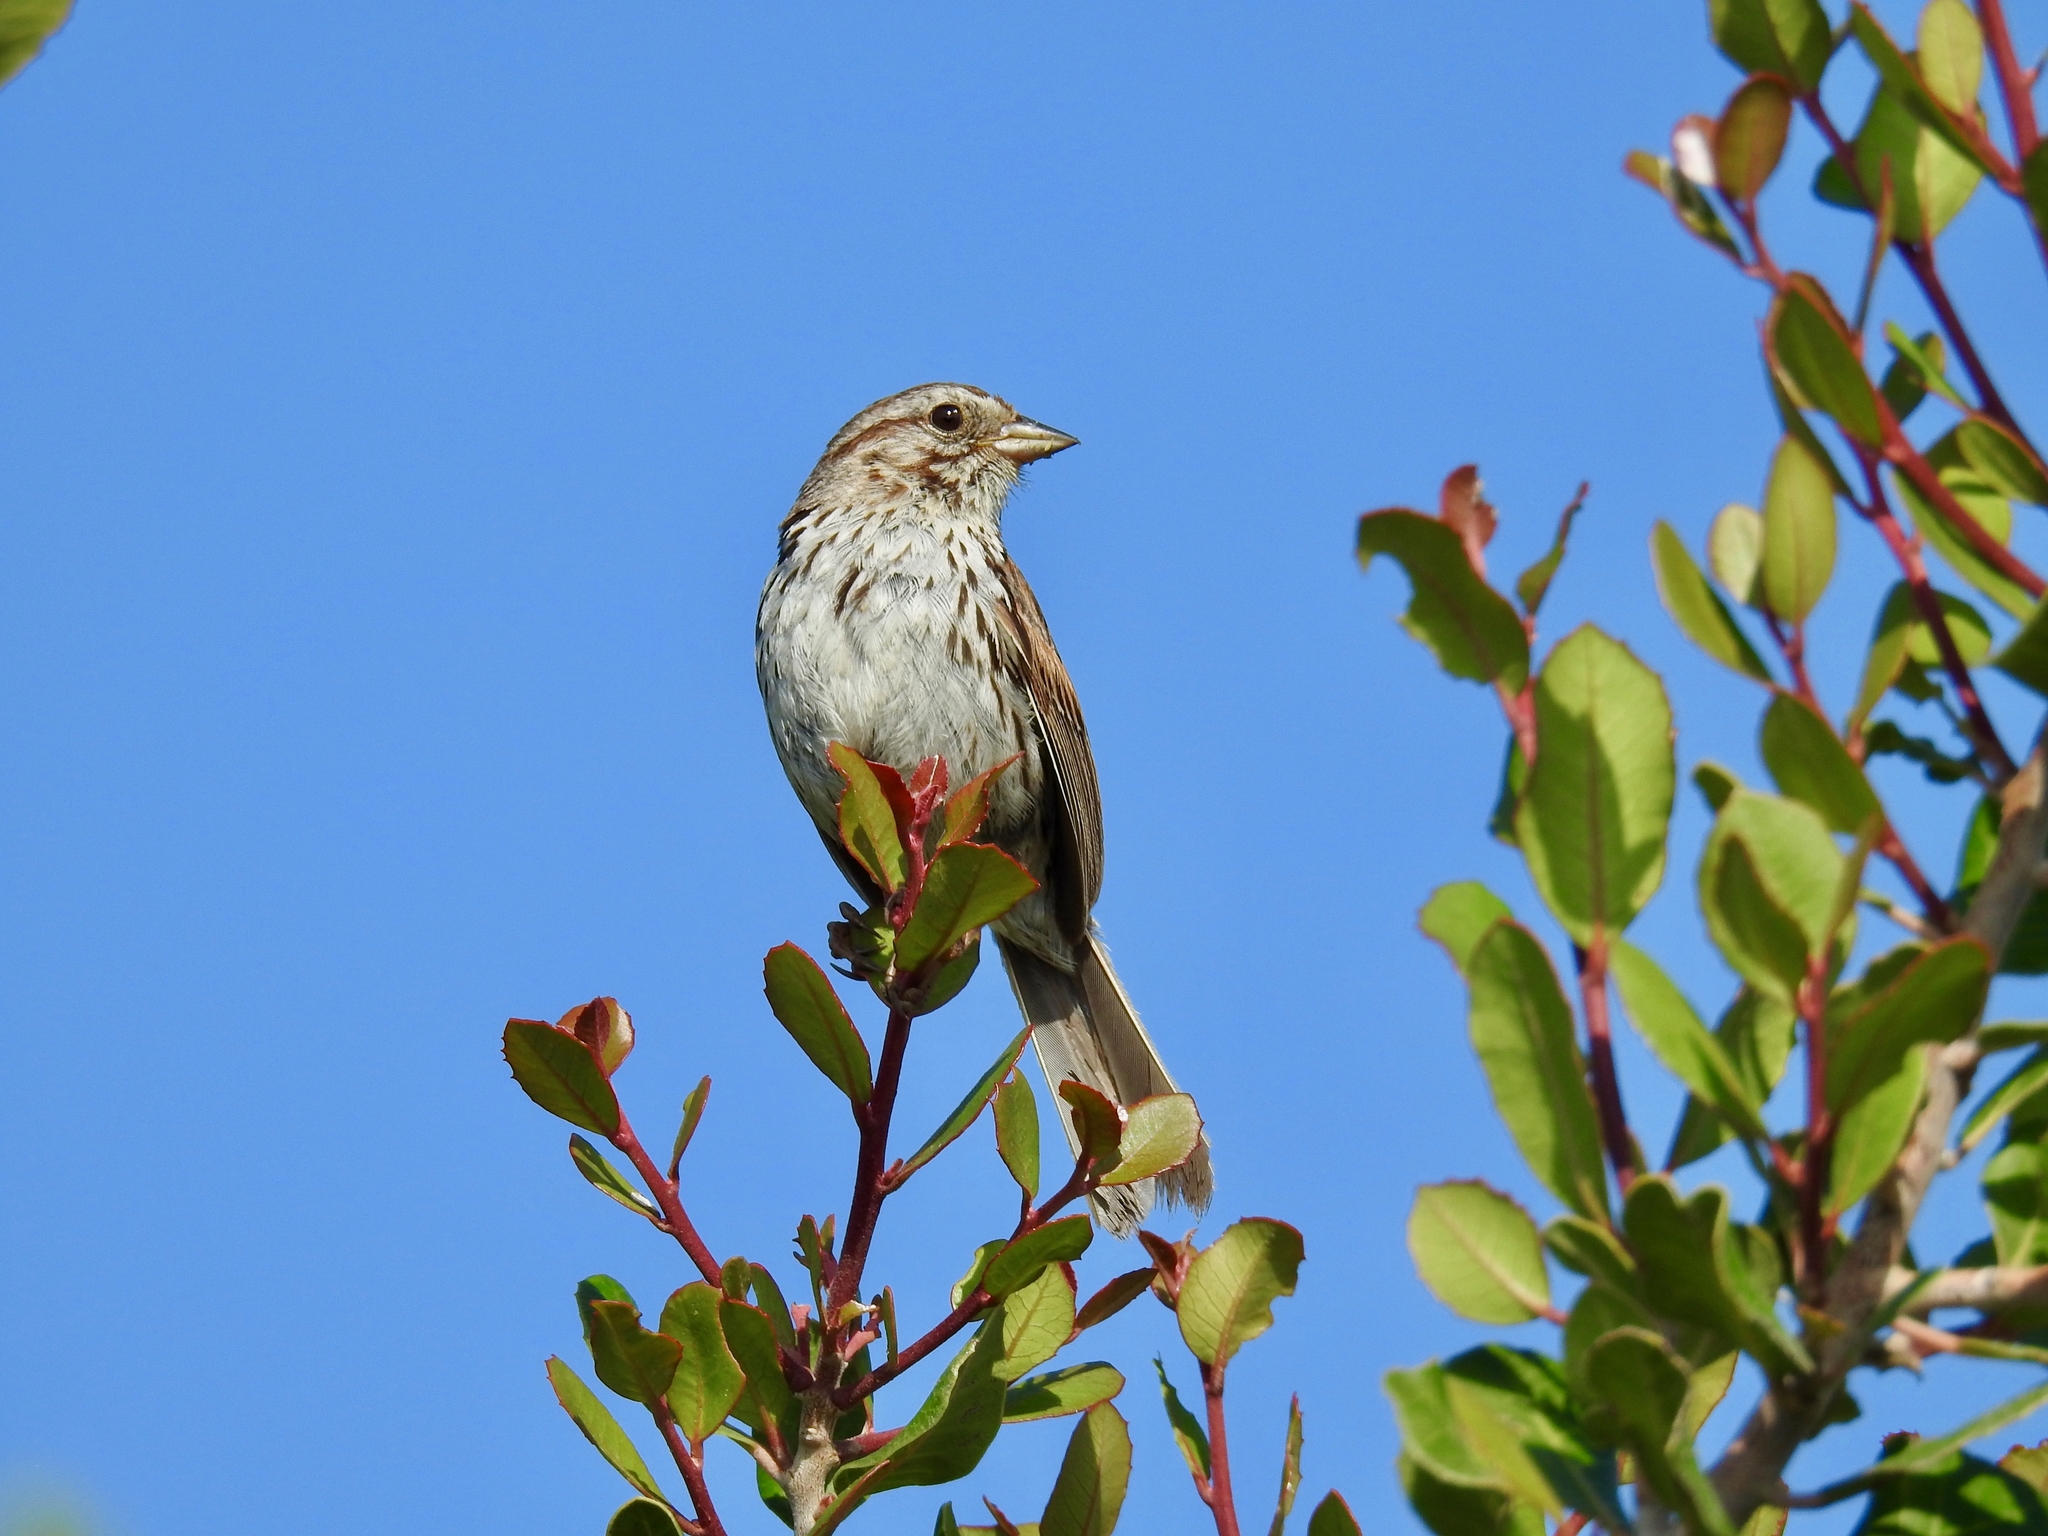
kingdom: Animalia
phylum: Chordata
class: Aves
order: Passeriformes
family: Passerellidae
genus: Melospiza
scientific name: Melospiza melodia
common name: Song sparrow
